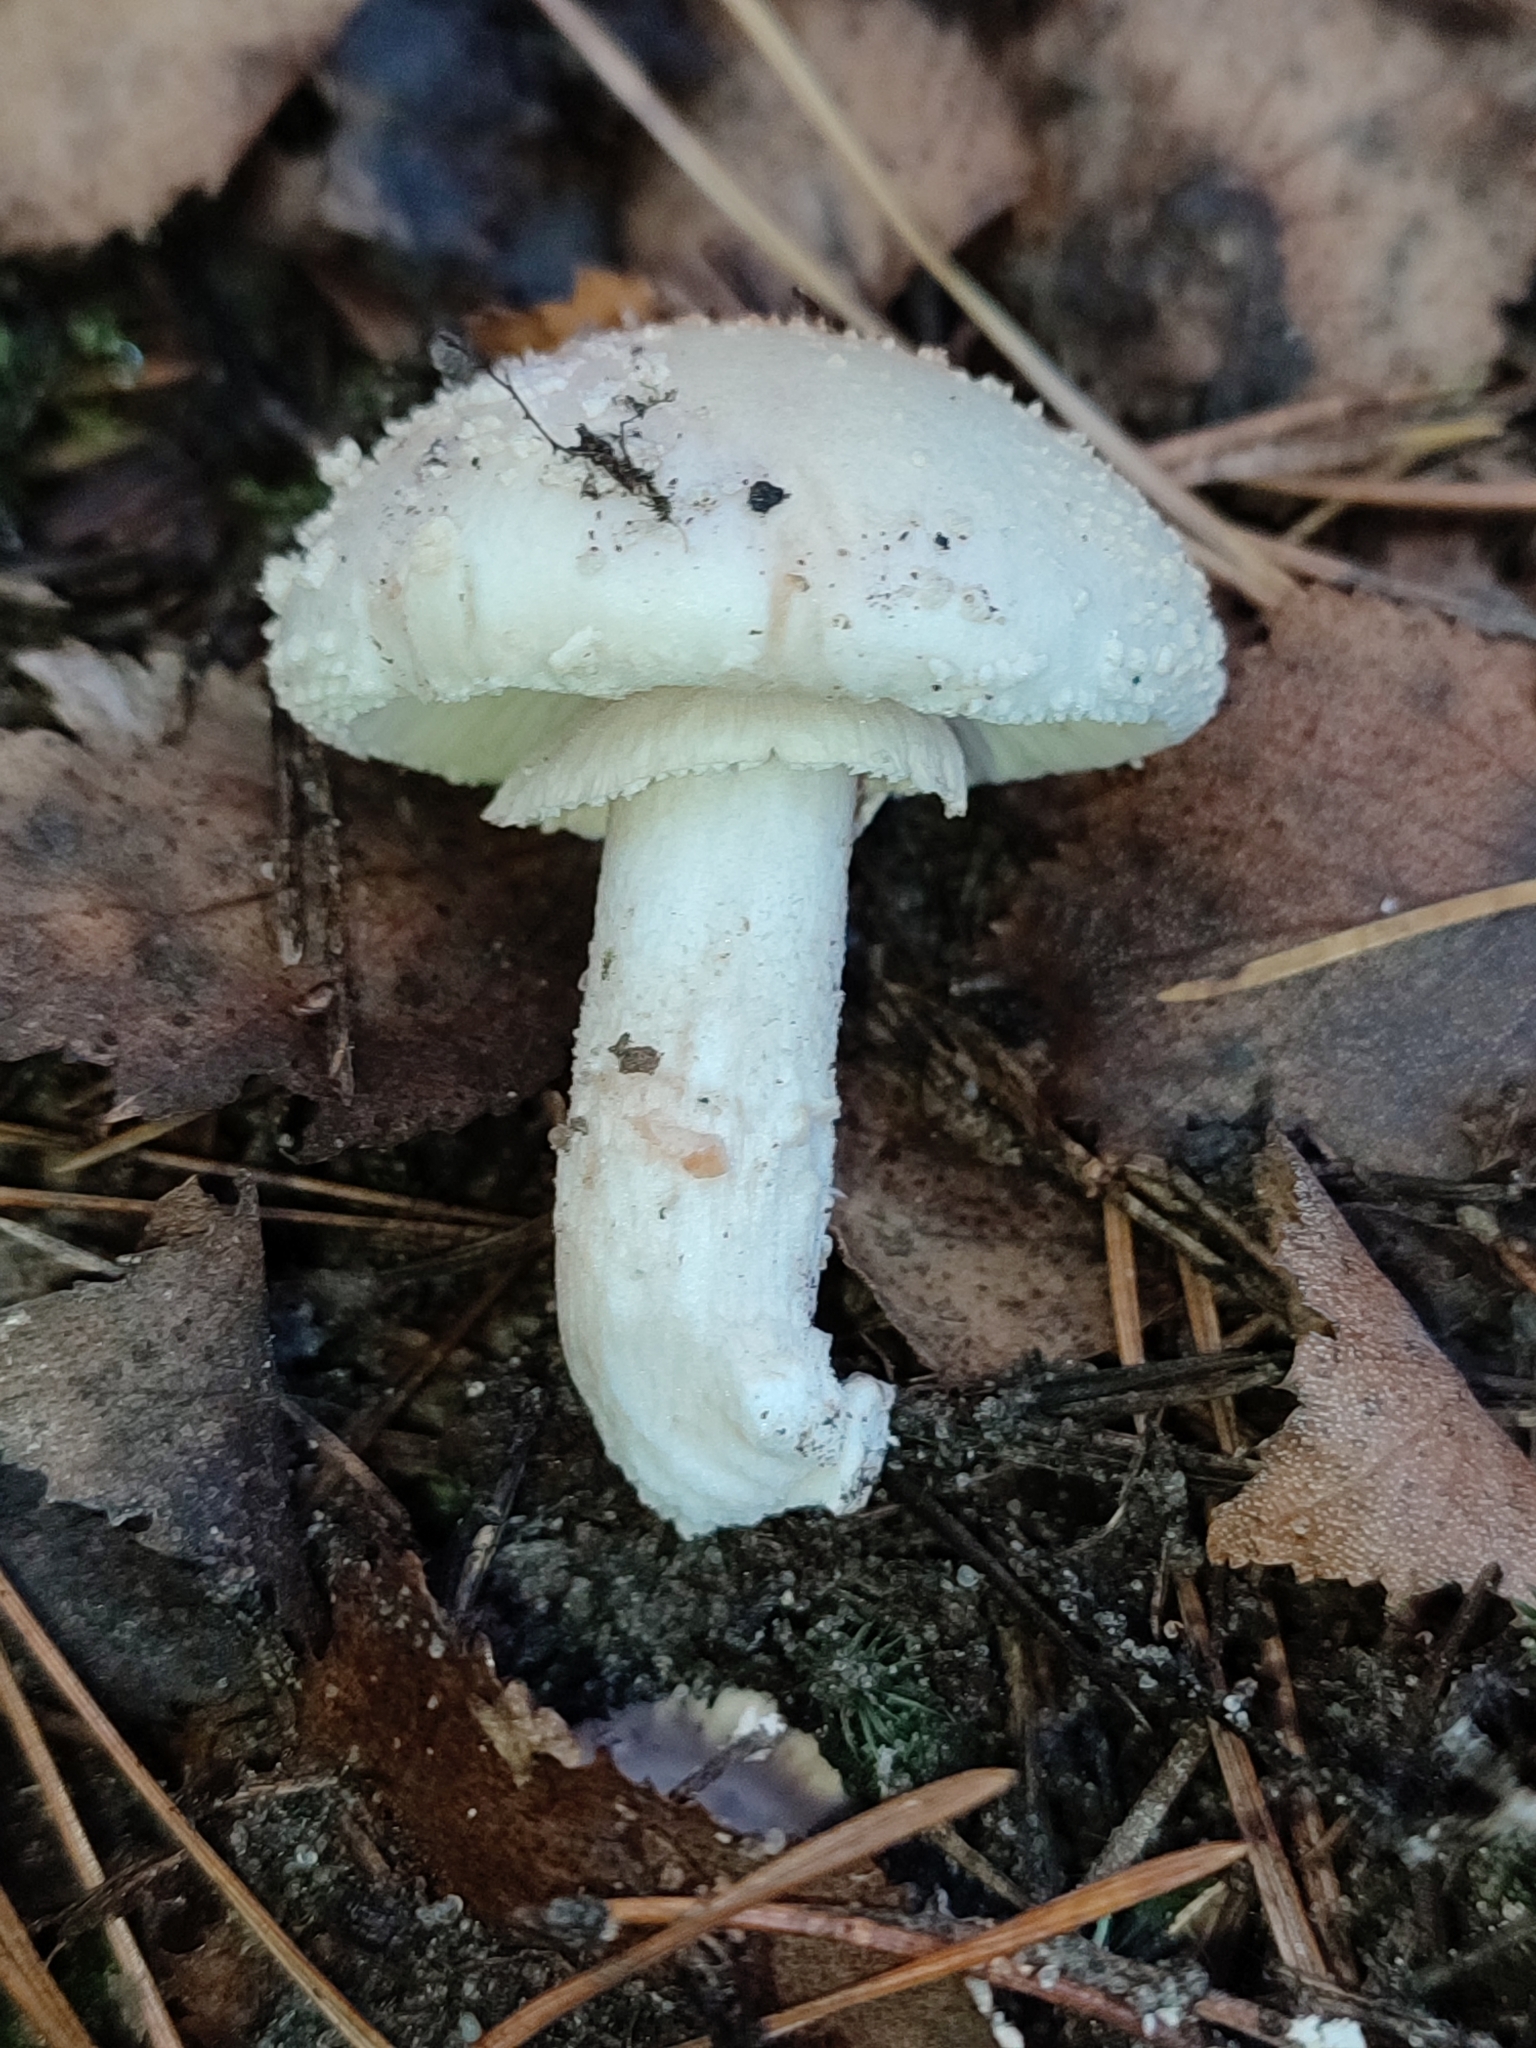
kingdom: Fungi
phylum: Basidiomycota
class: Agaricomycetes
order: Agaricales
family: Amanitaceae
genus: Amanita
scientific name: Amanita citrina
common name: False death-cap
